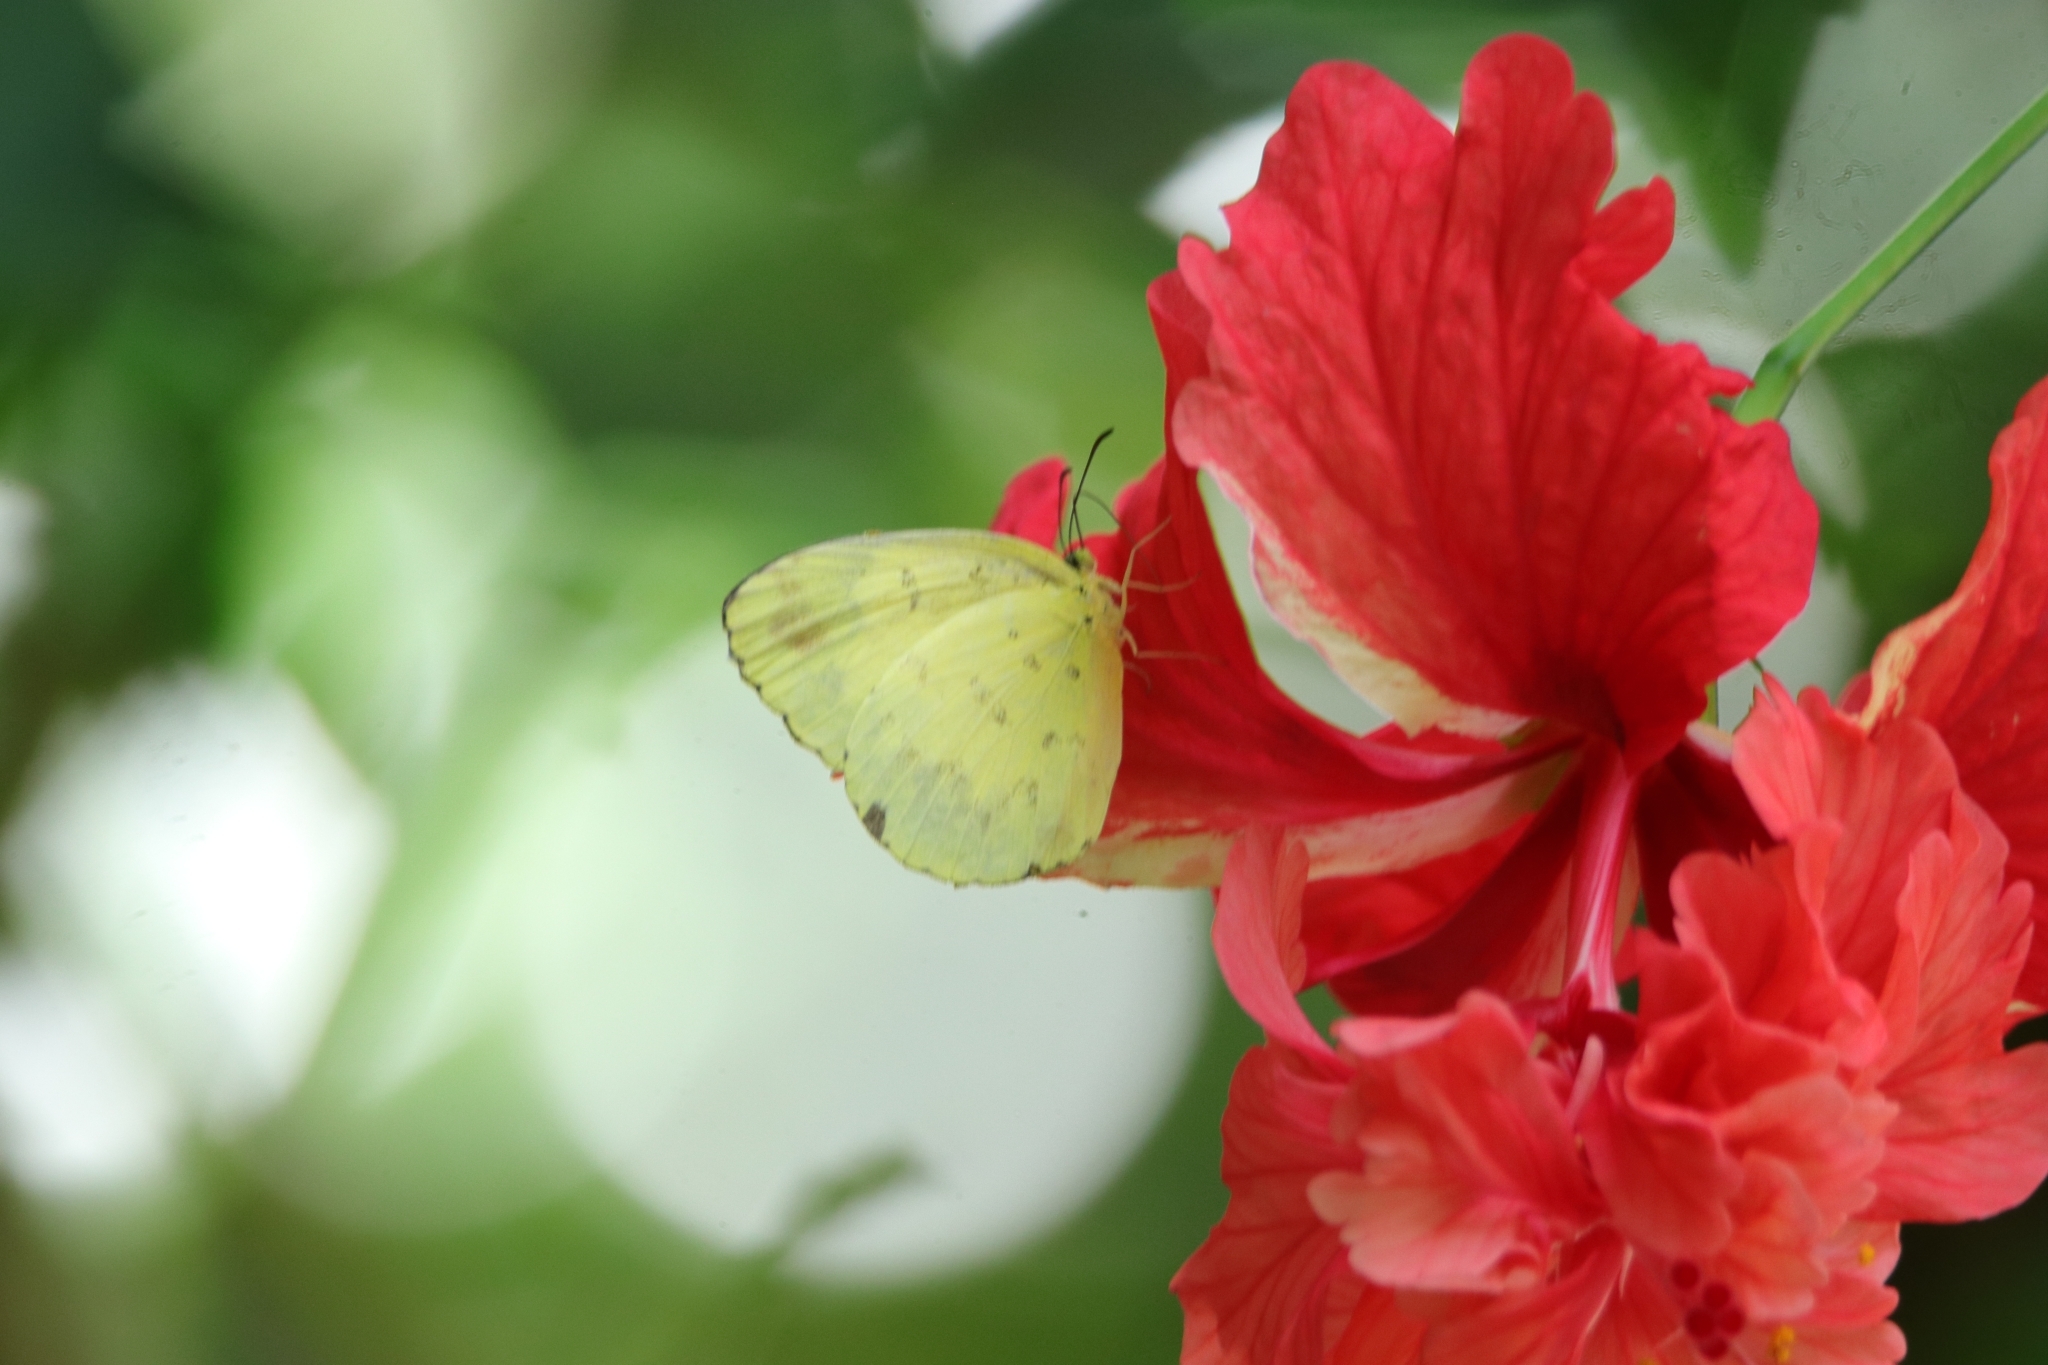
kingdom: Animalia
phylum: Arthropoda
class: Insecta
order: Lepidoptera
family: Pieridae
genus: Eurema
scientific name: Eurema blanda
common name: Three-spot grass yellow
